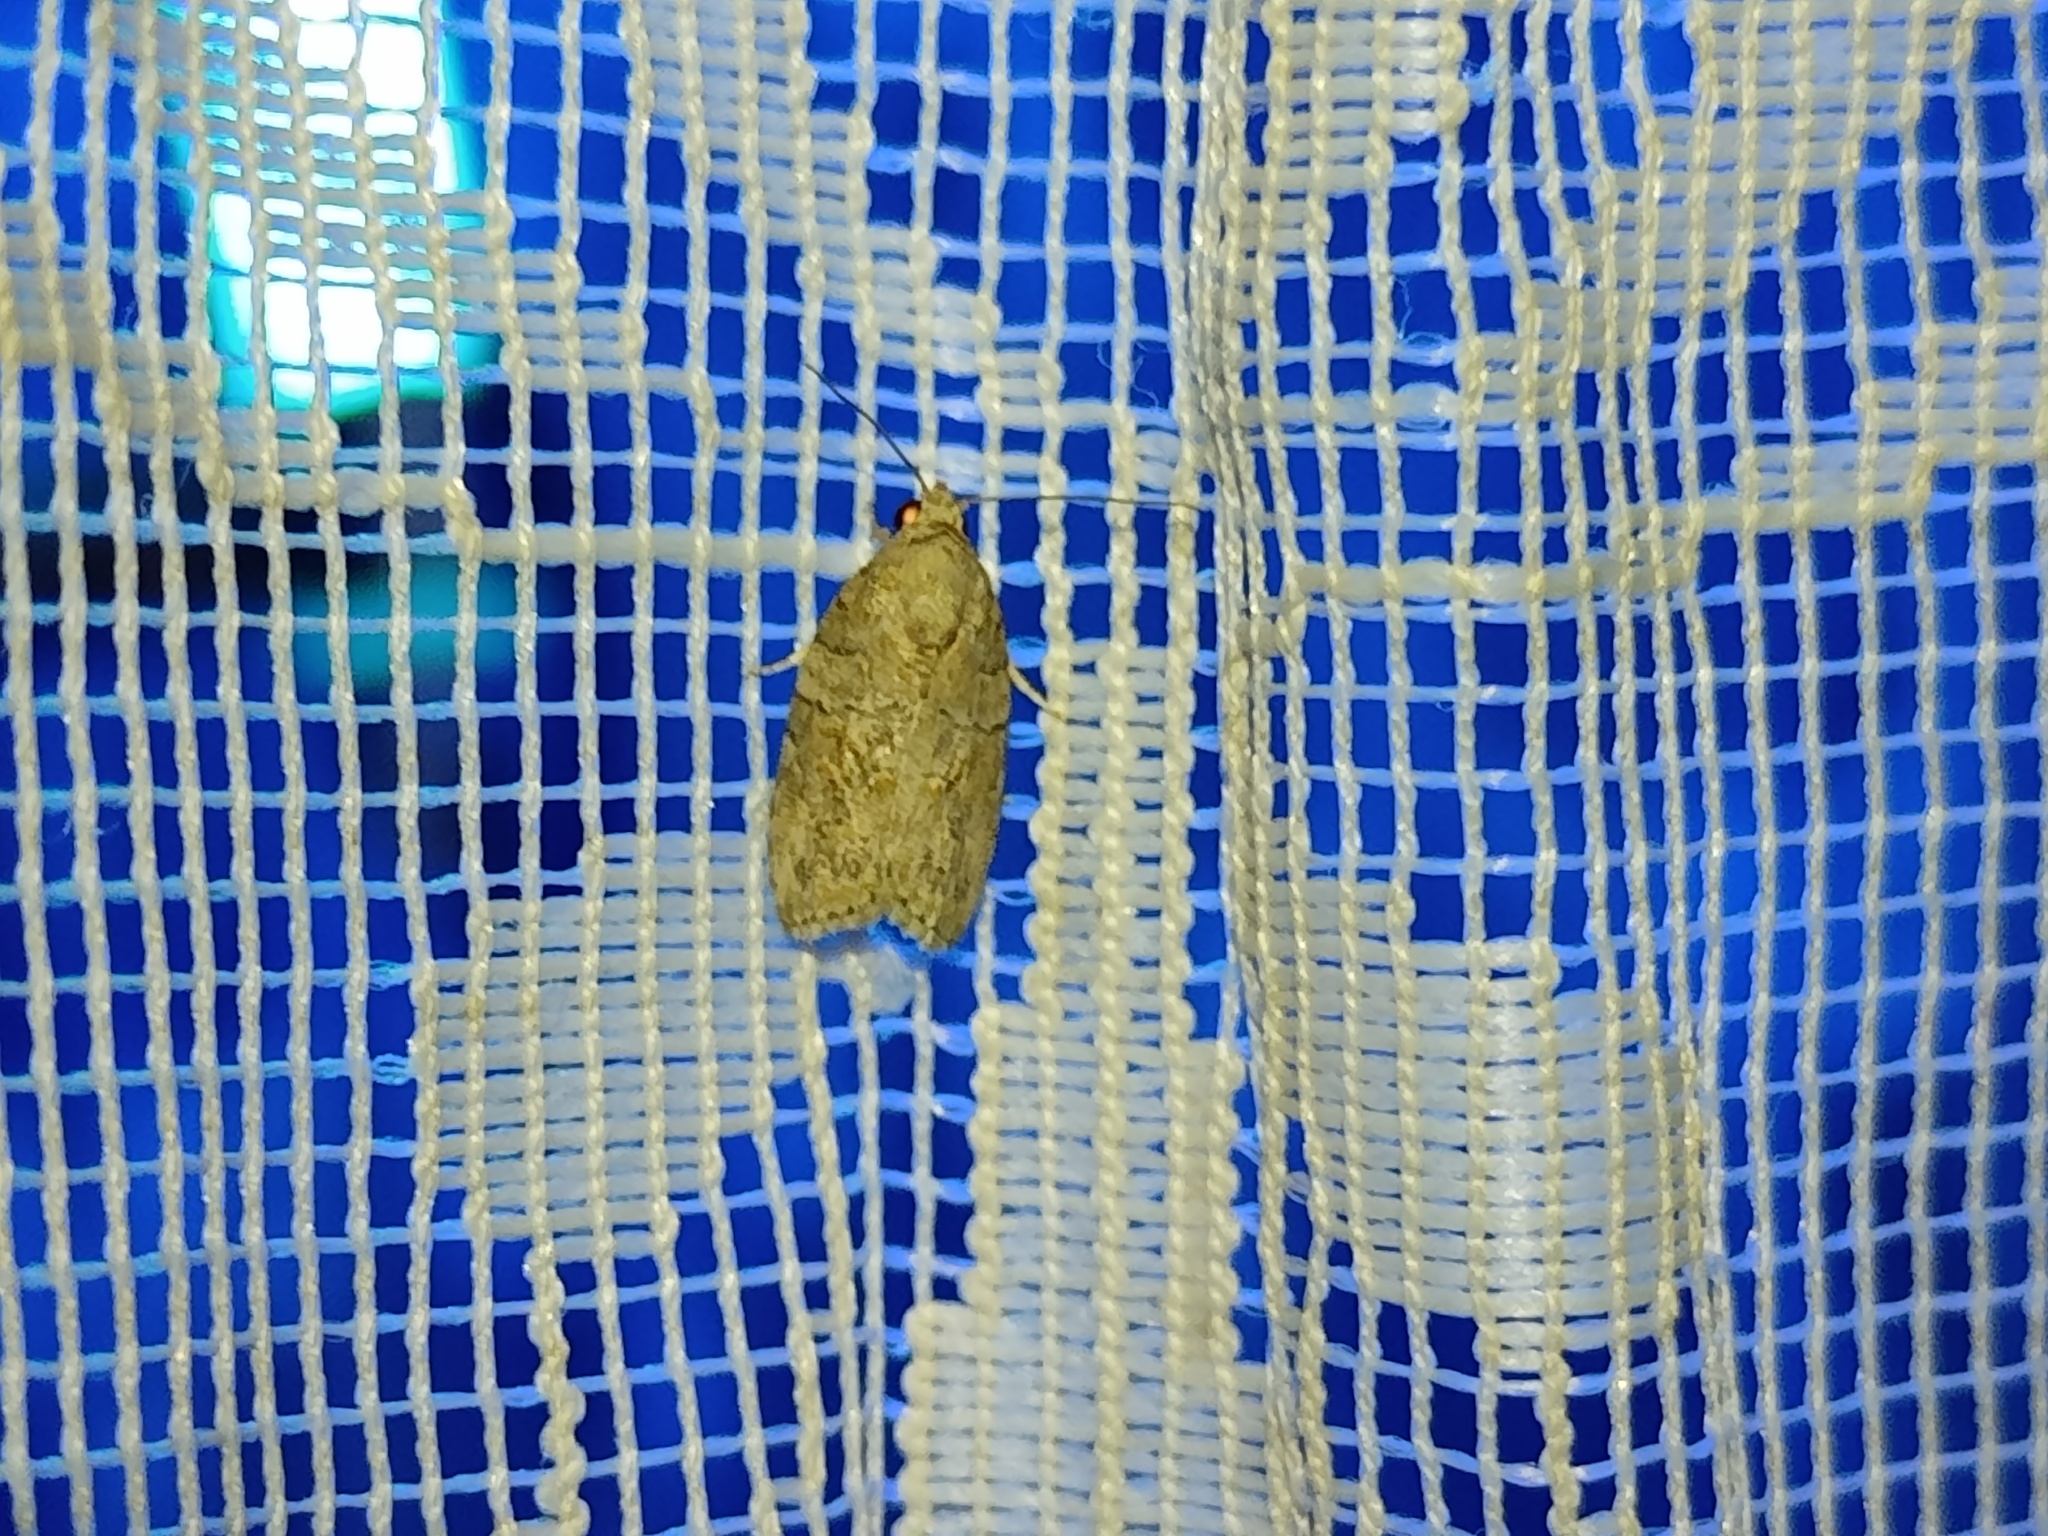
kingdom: Animalia
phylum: Arthropoda
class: Insecta
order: Lepidoptera
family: Nolidae
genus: Garella
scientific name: Garella nilotica
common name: Black-olive caterpillar moth
